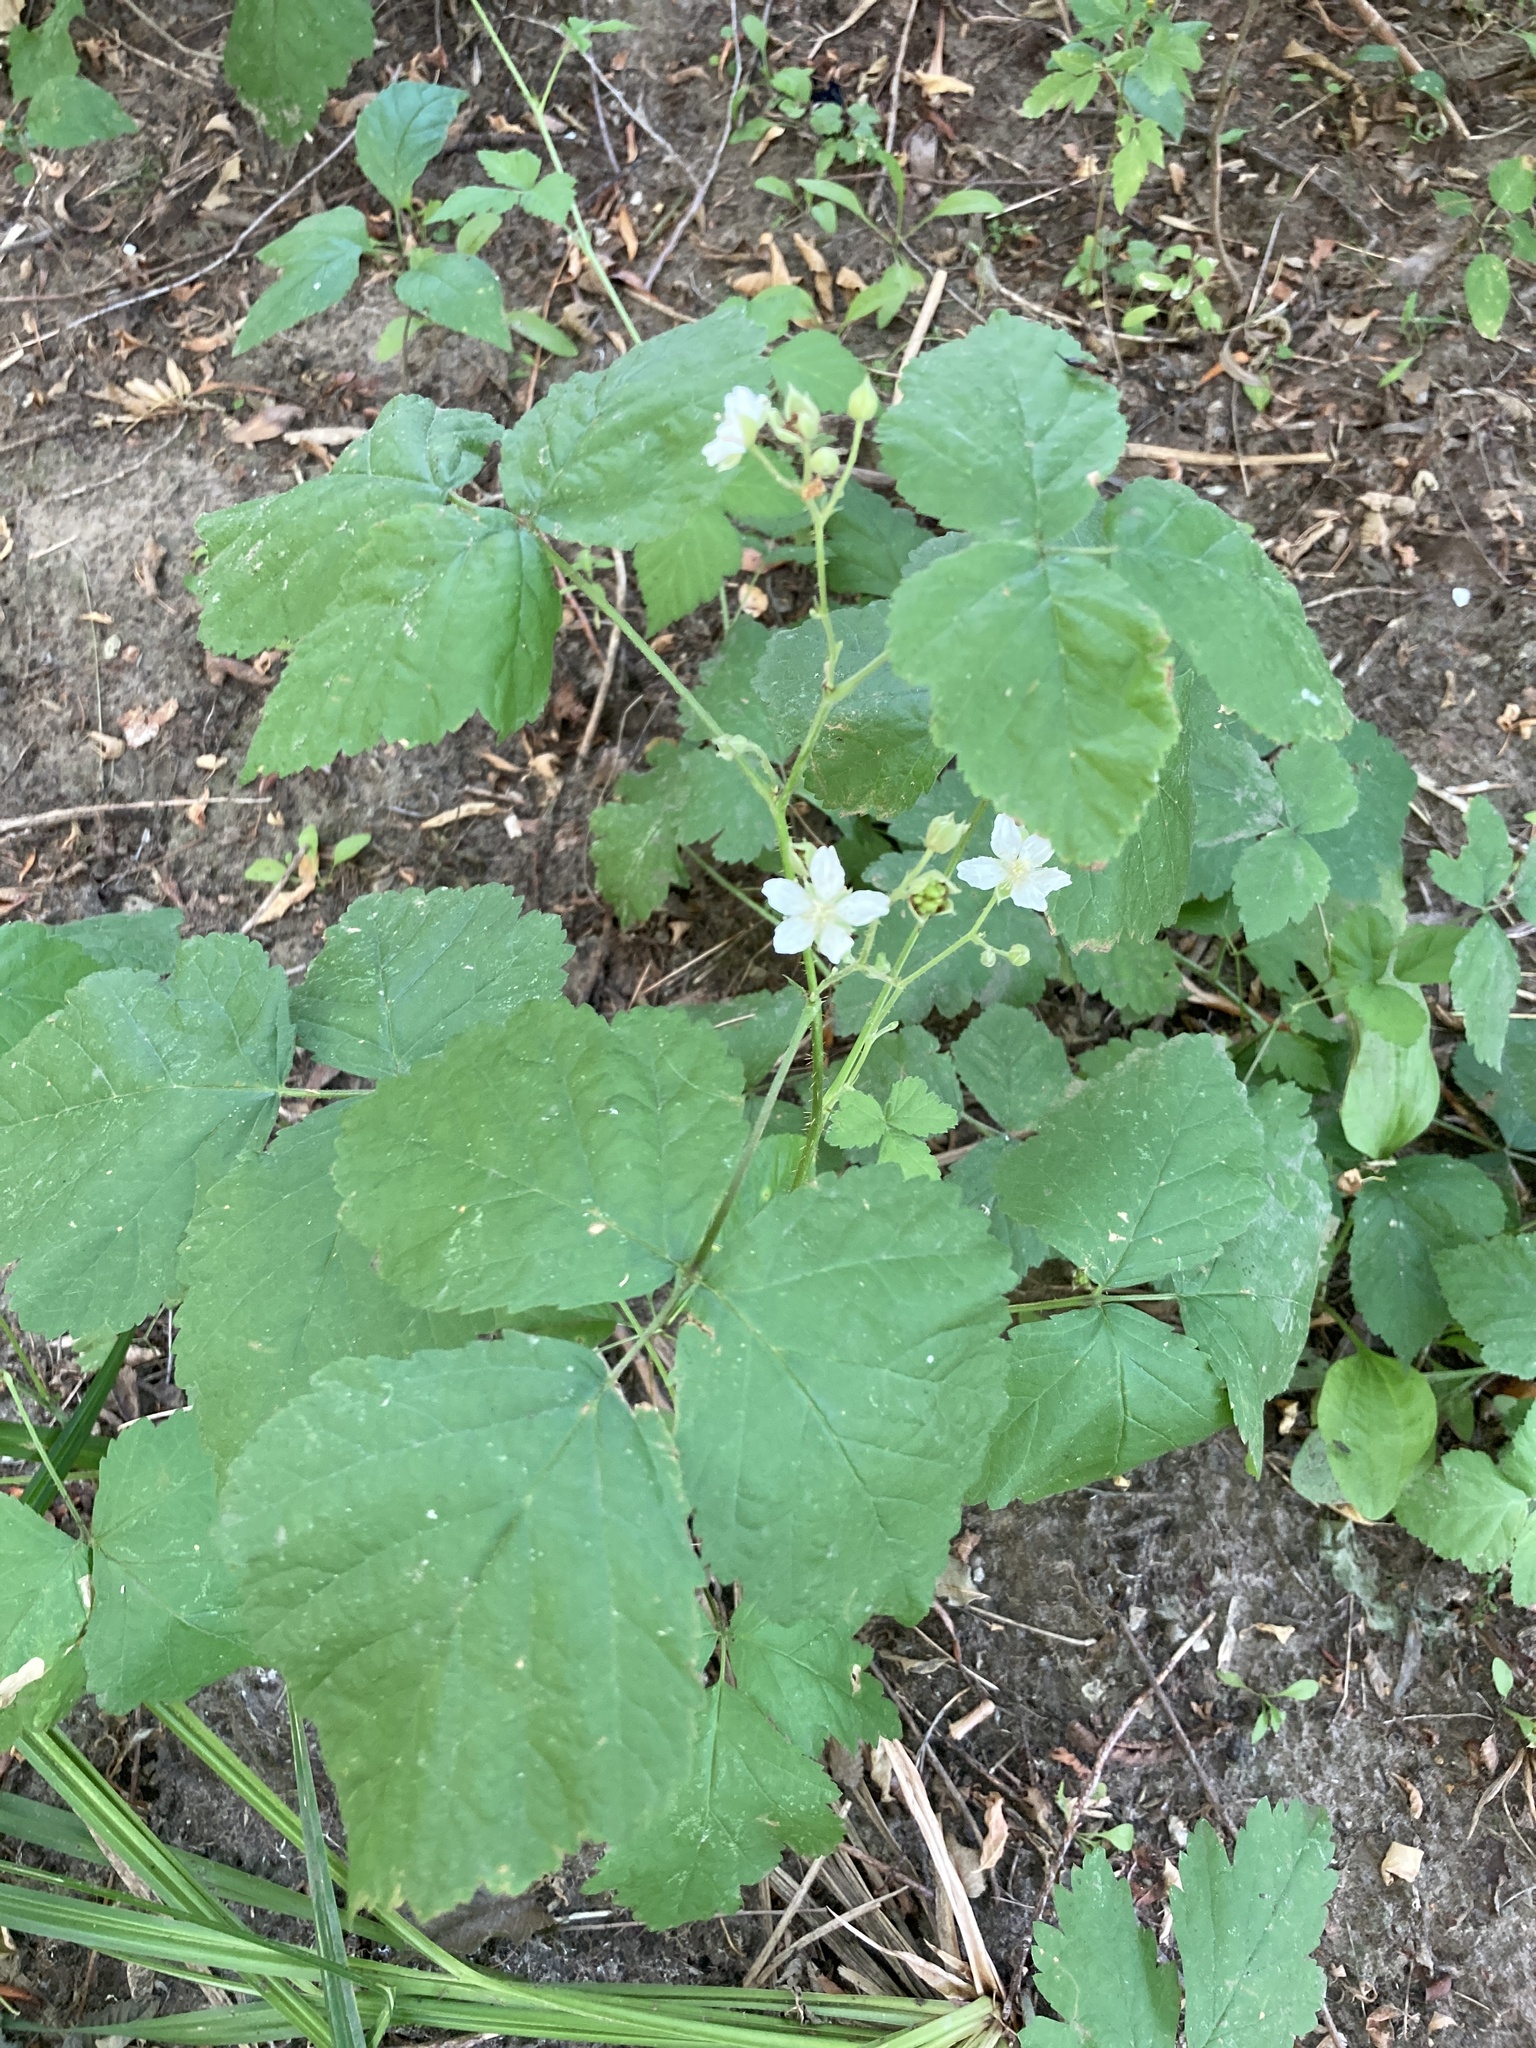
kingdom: Plantae
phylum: Tracheophyta
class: Magnoliopsida
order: Rosales
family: Rosaceae
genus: Rubus
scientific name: Rubus caesius
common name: Dewberry
